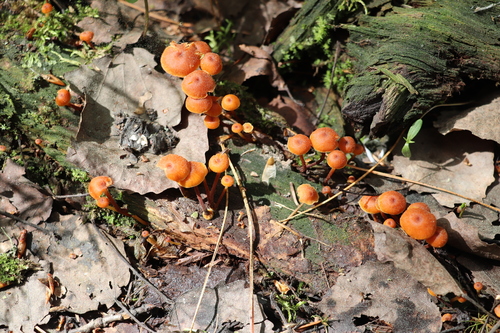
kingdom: Fungi
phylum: Basidiomycota
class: Agaricomycetes
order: Agaricales
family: Mycenaceae
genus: Xeromphalina
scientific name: Xeromphalina campanella
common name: Pinewood gingertail
